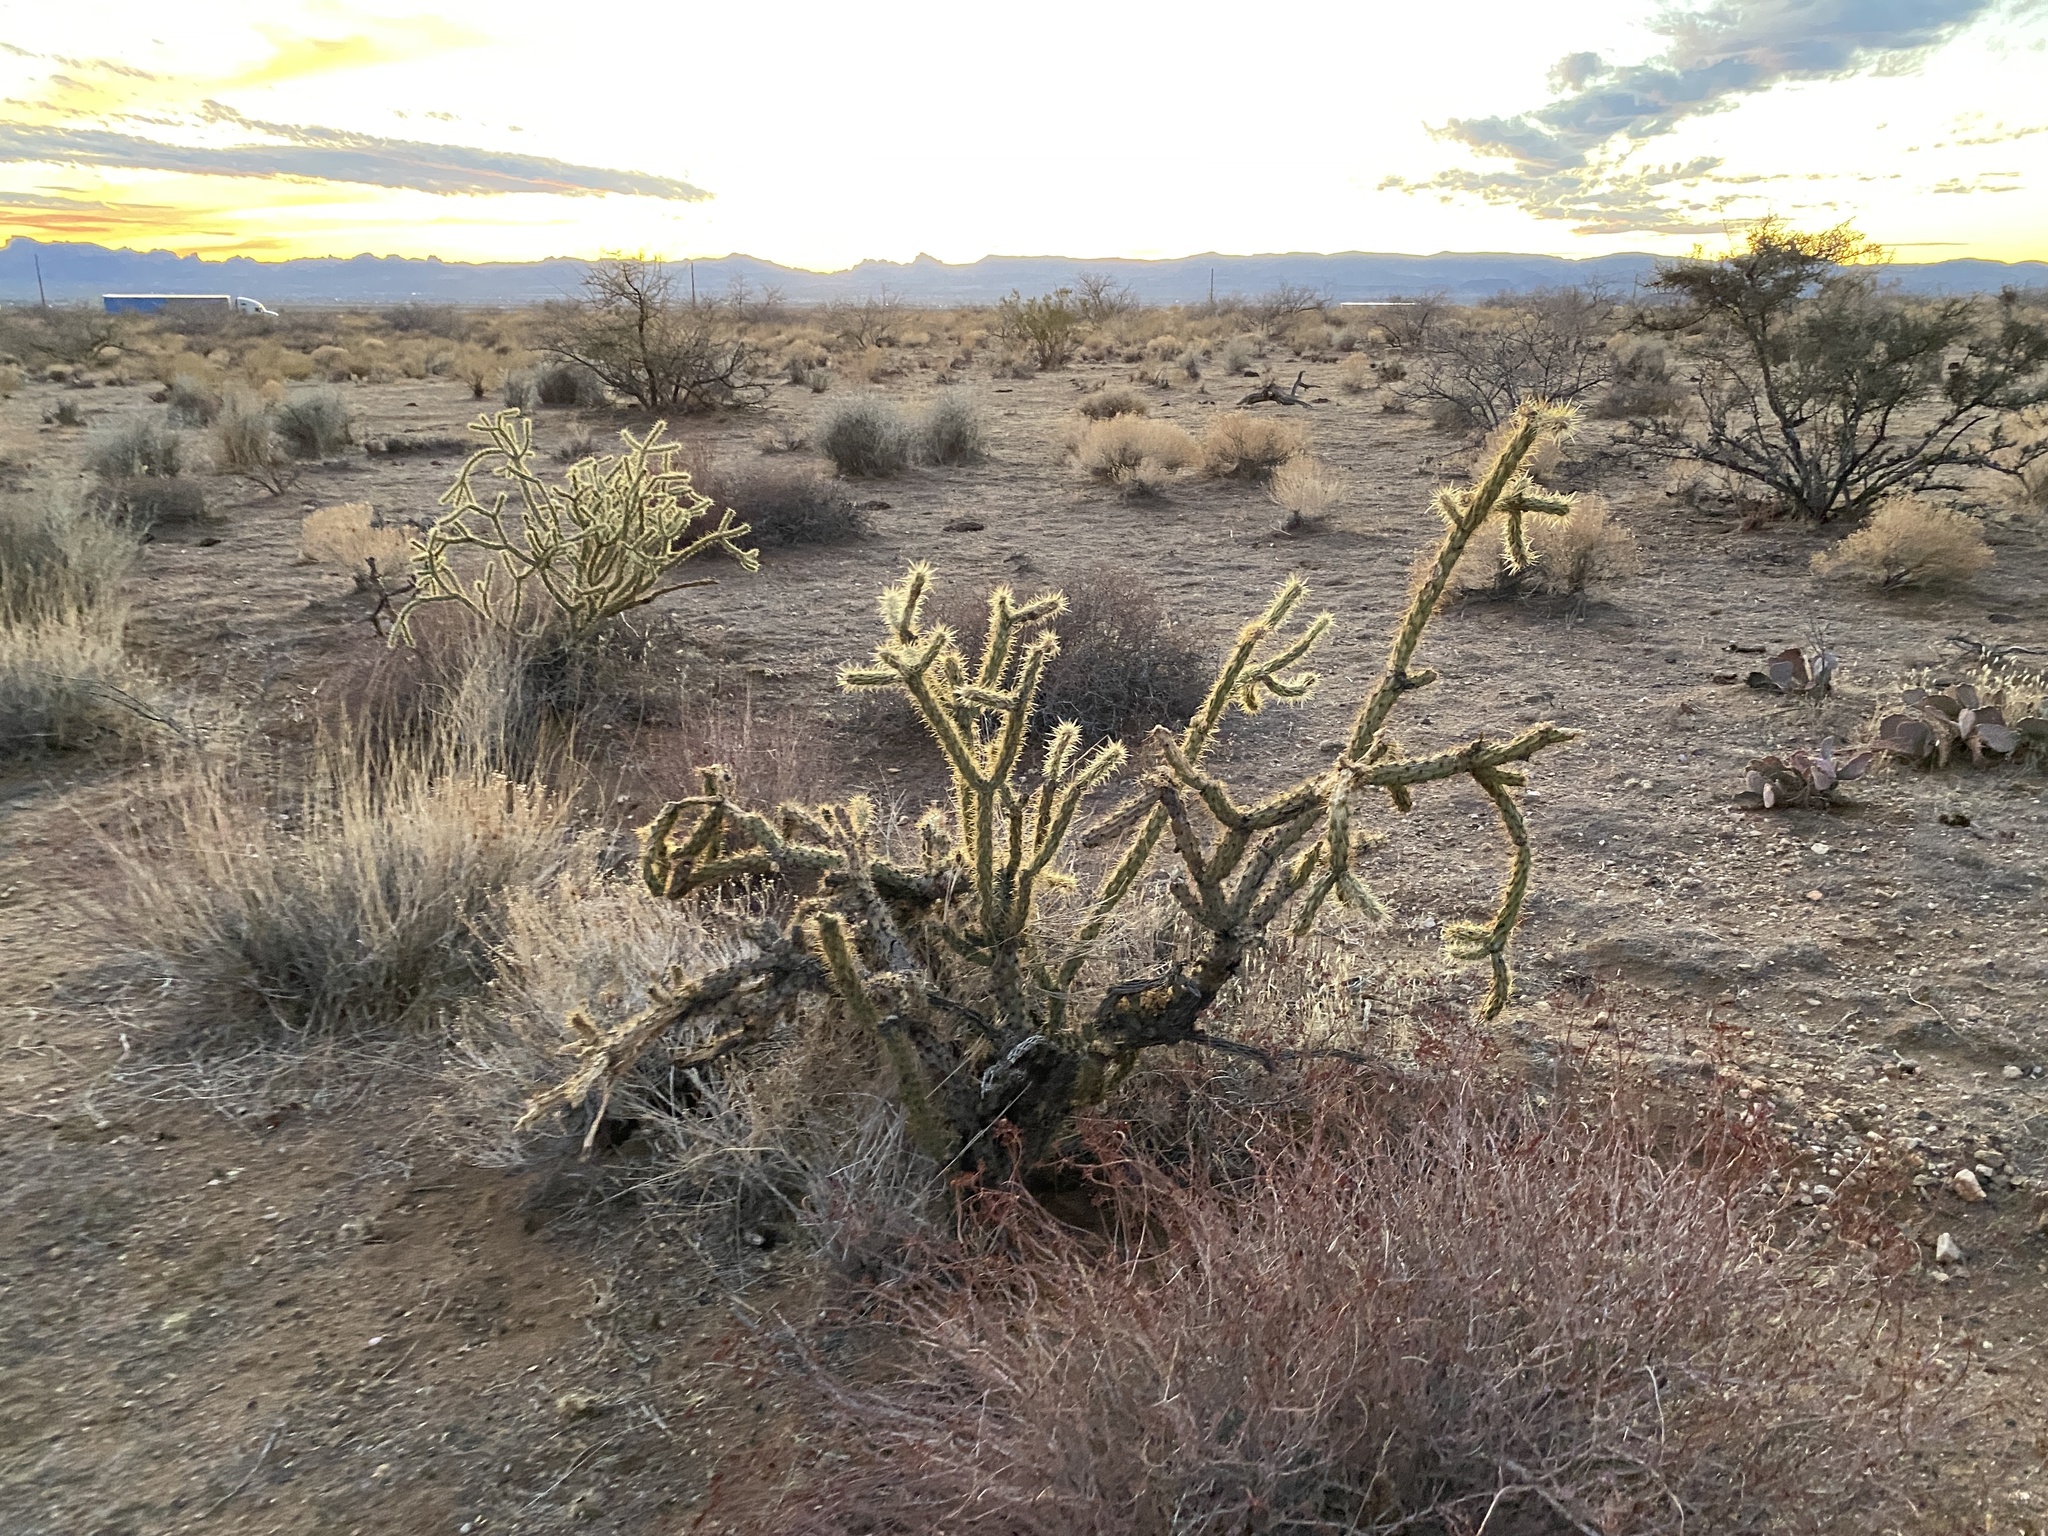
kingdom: Plantae
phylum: Tracheophyta
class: Magnoliopsida
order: Caryophyllales
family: Cactaceae
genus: Cylindropuntia
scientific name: Cylindropuntia acanthocarpa
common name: Buckhorn cholla
